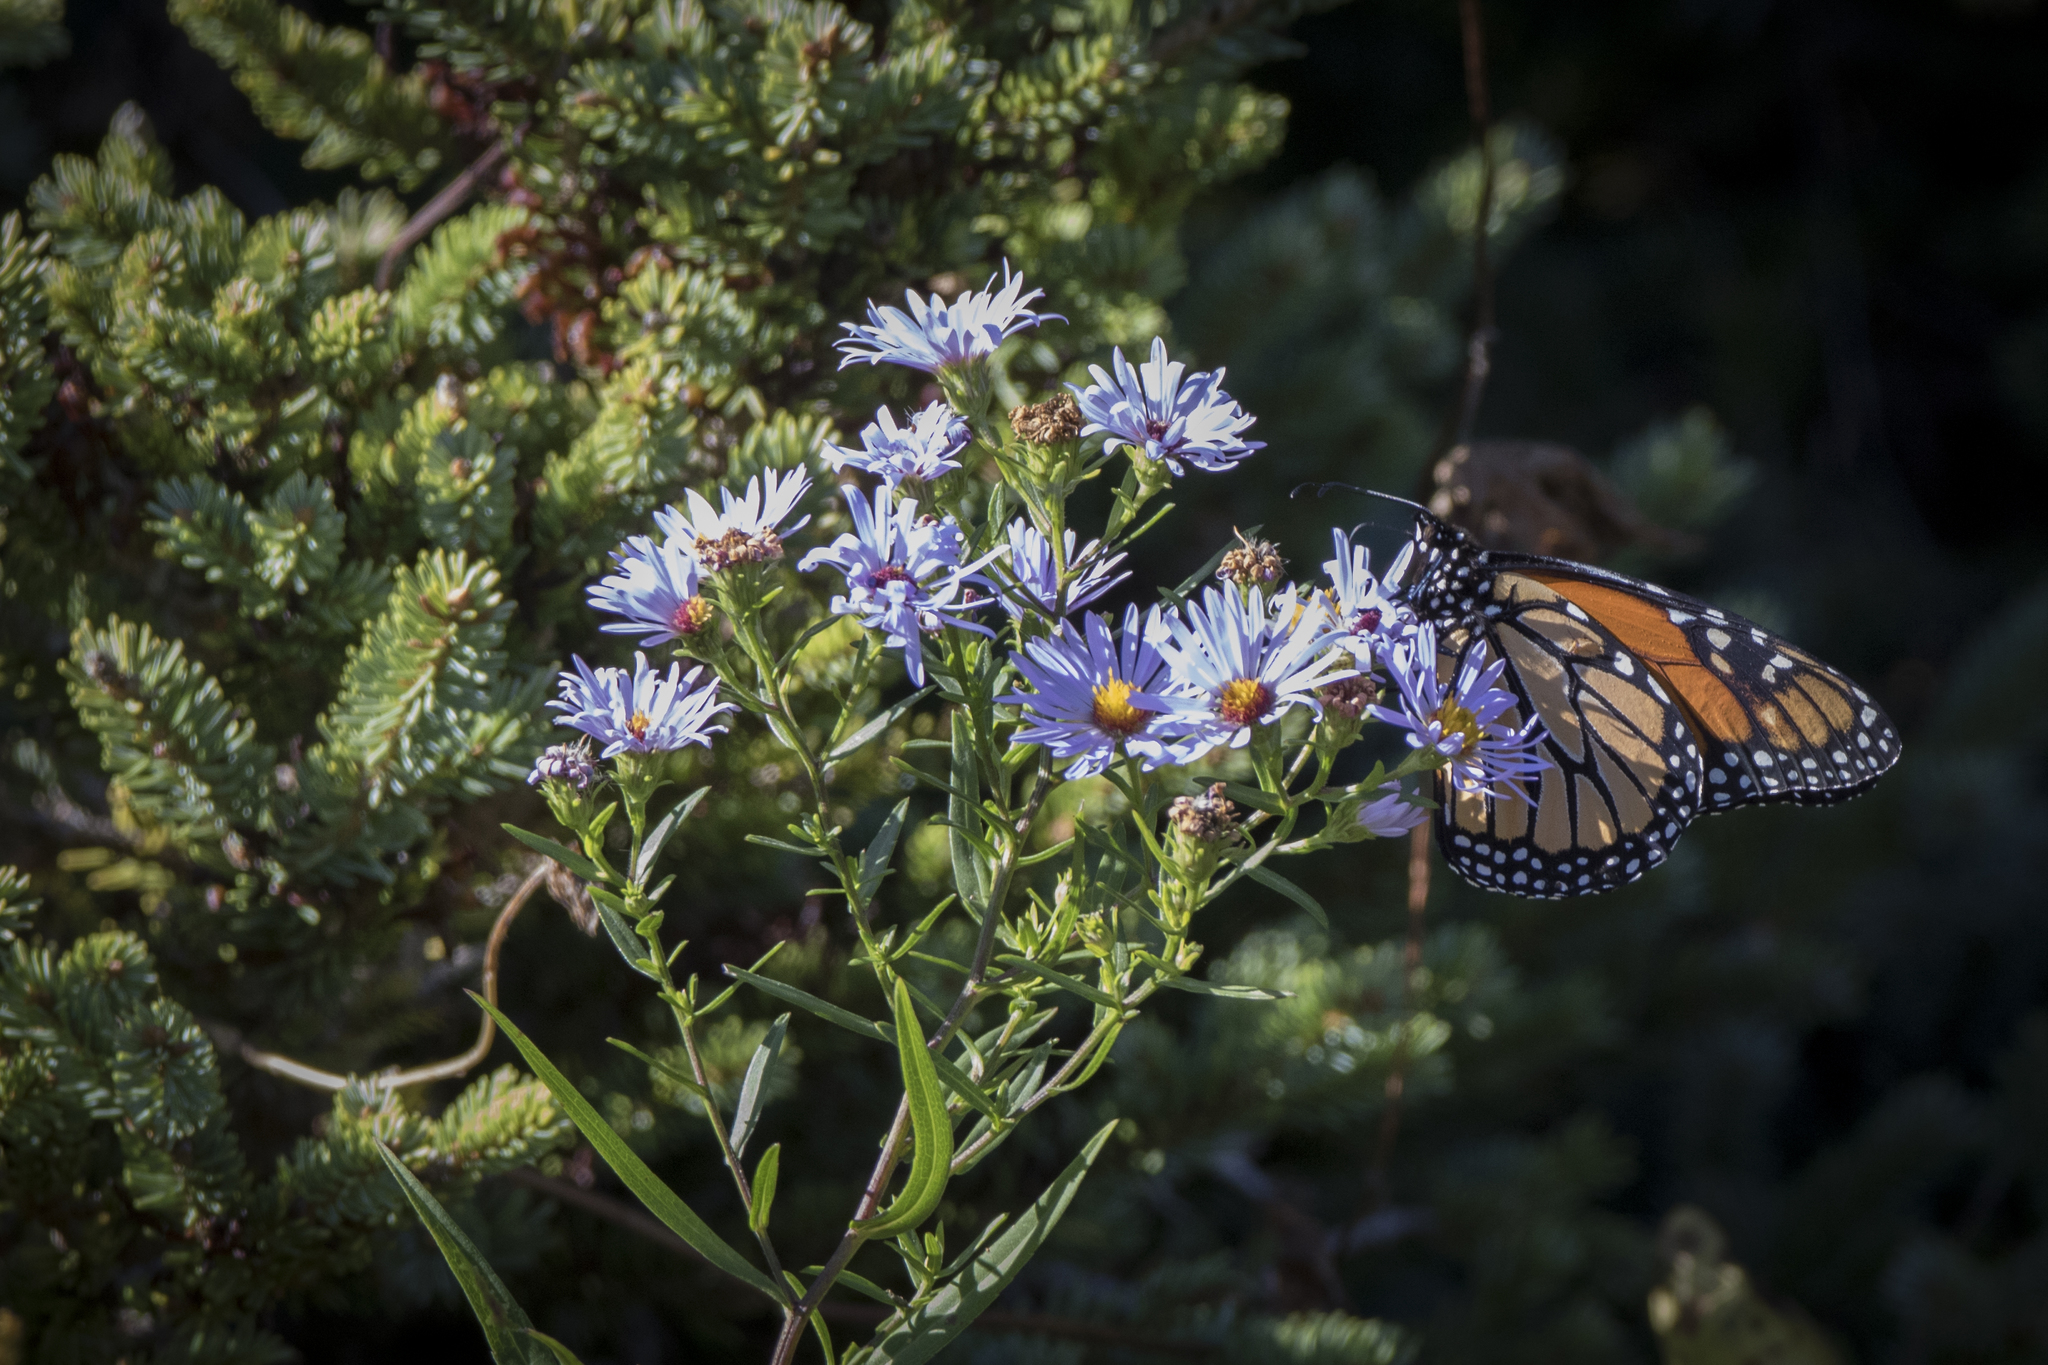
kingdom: Animalia
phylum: Arthropoda
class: Insecta
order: Lepidoptera
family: Nymphalidae
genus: Danaus
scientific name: Danaus plexippus
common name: Monarch
